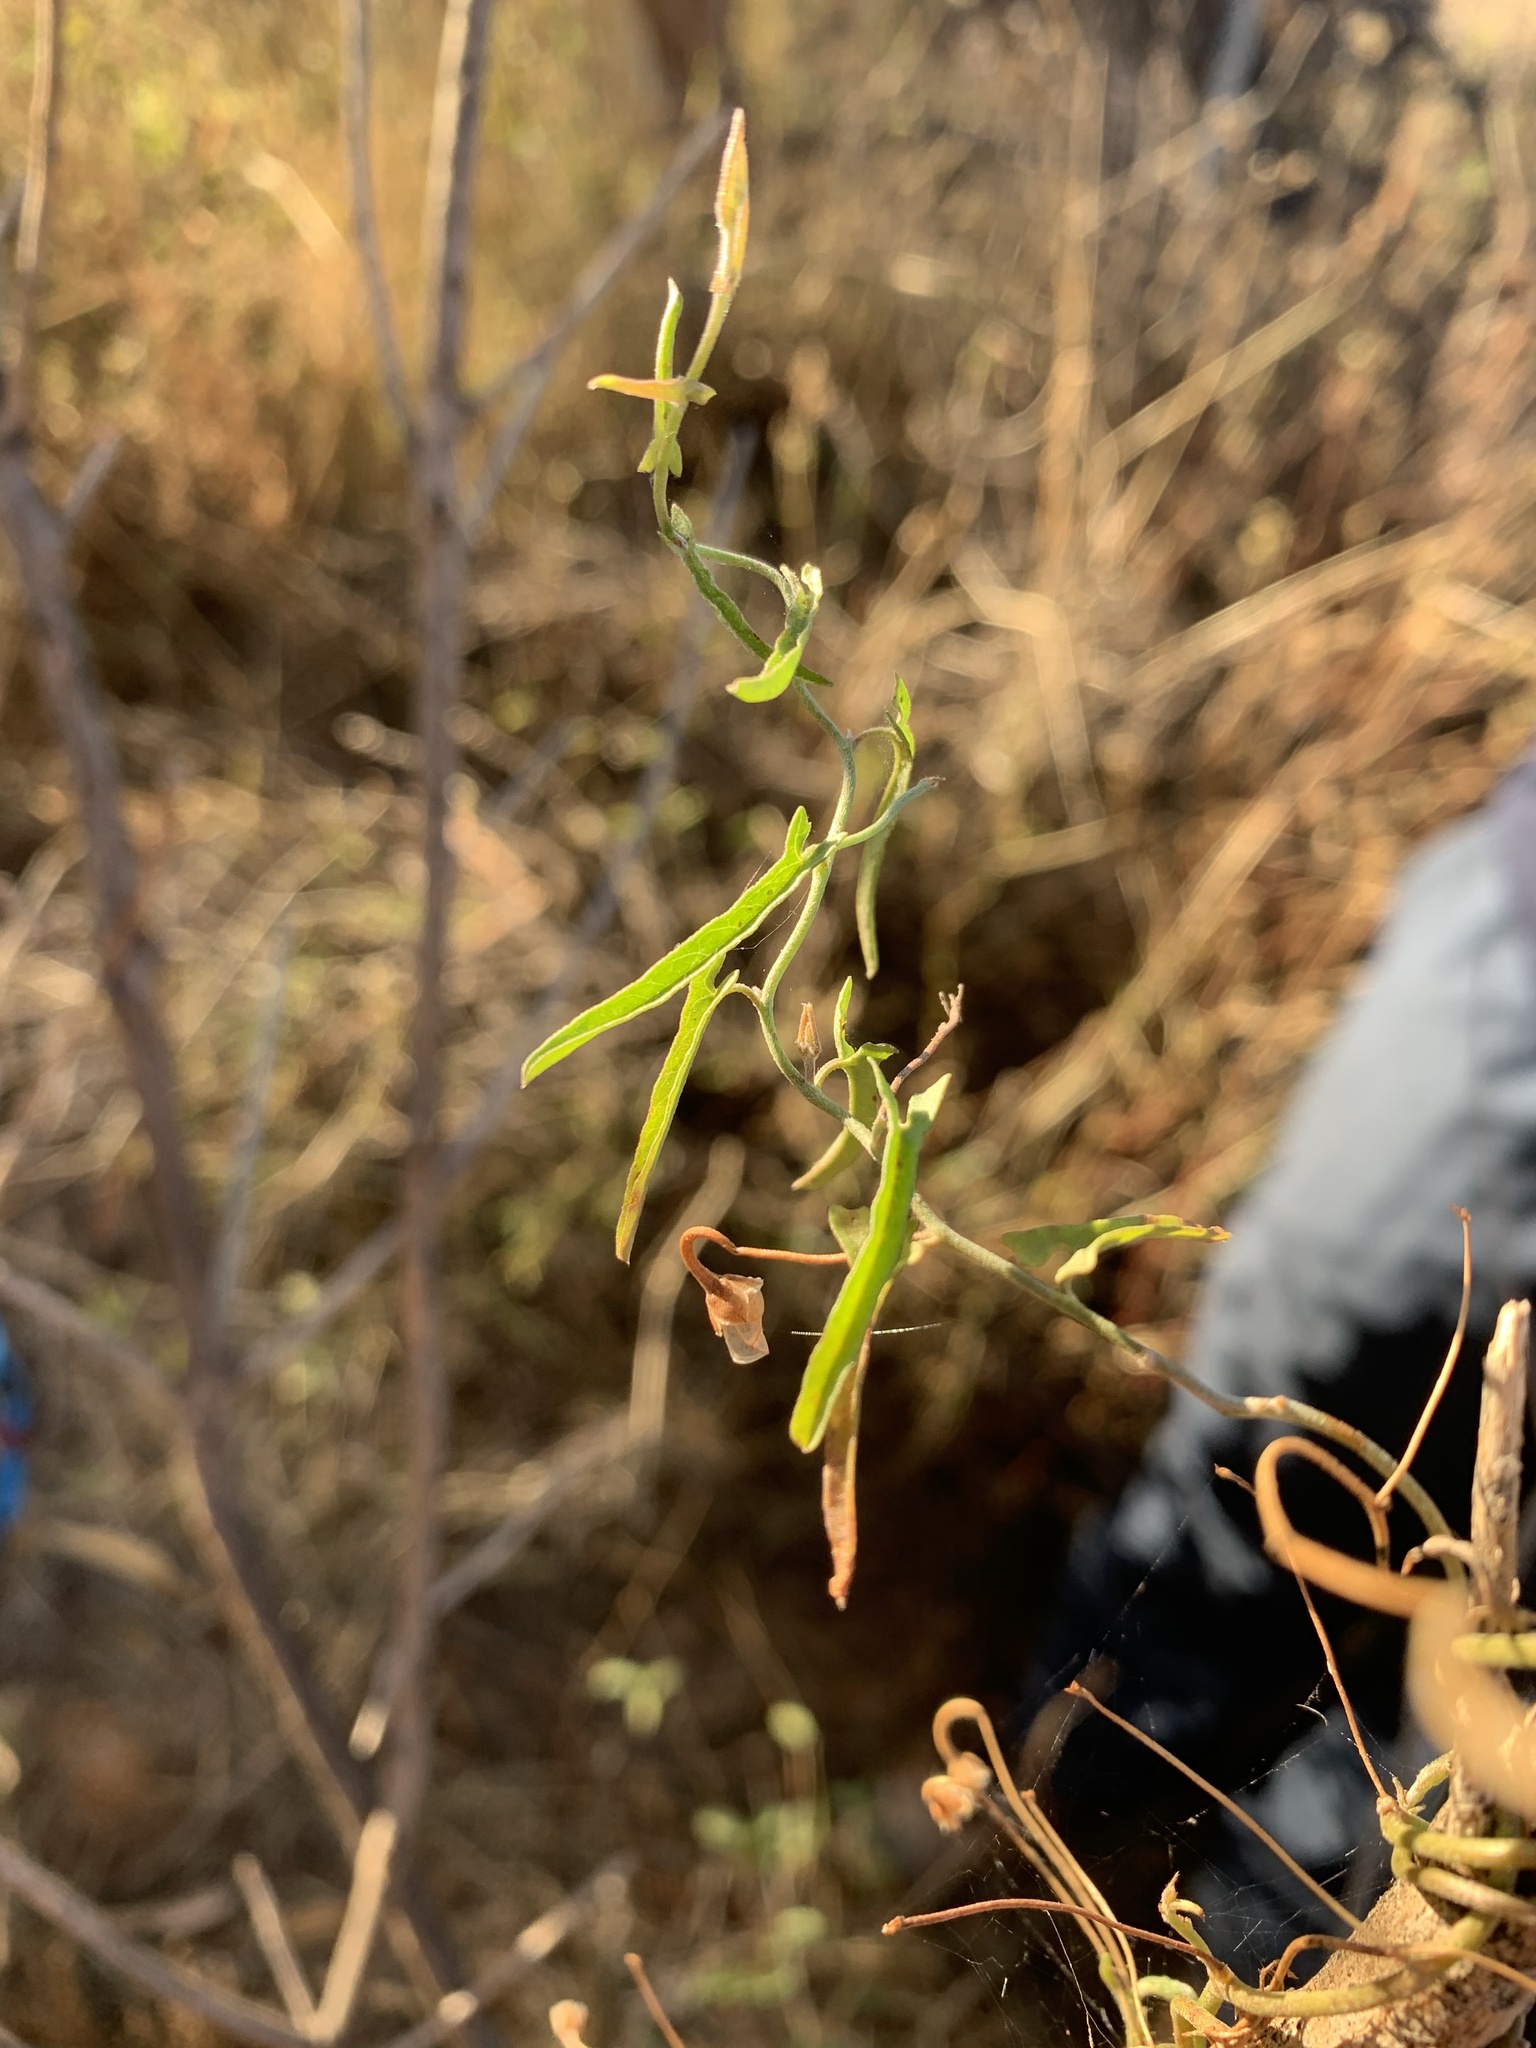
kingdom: Plantae
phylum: Tracheophyta
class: Magnoliopsida
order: Solanales
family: Convolvulaceae
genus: Convolvulus
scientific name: Convolvulus remotus
